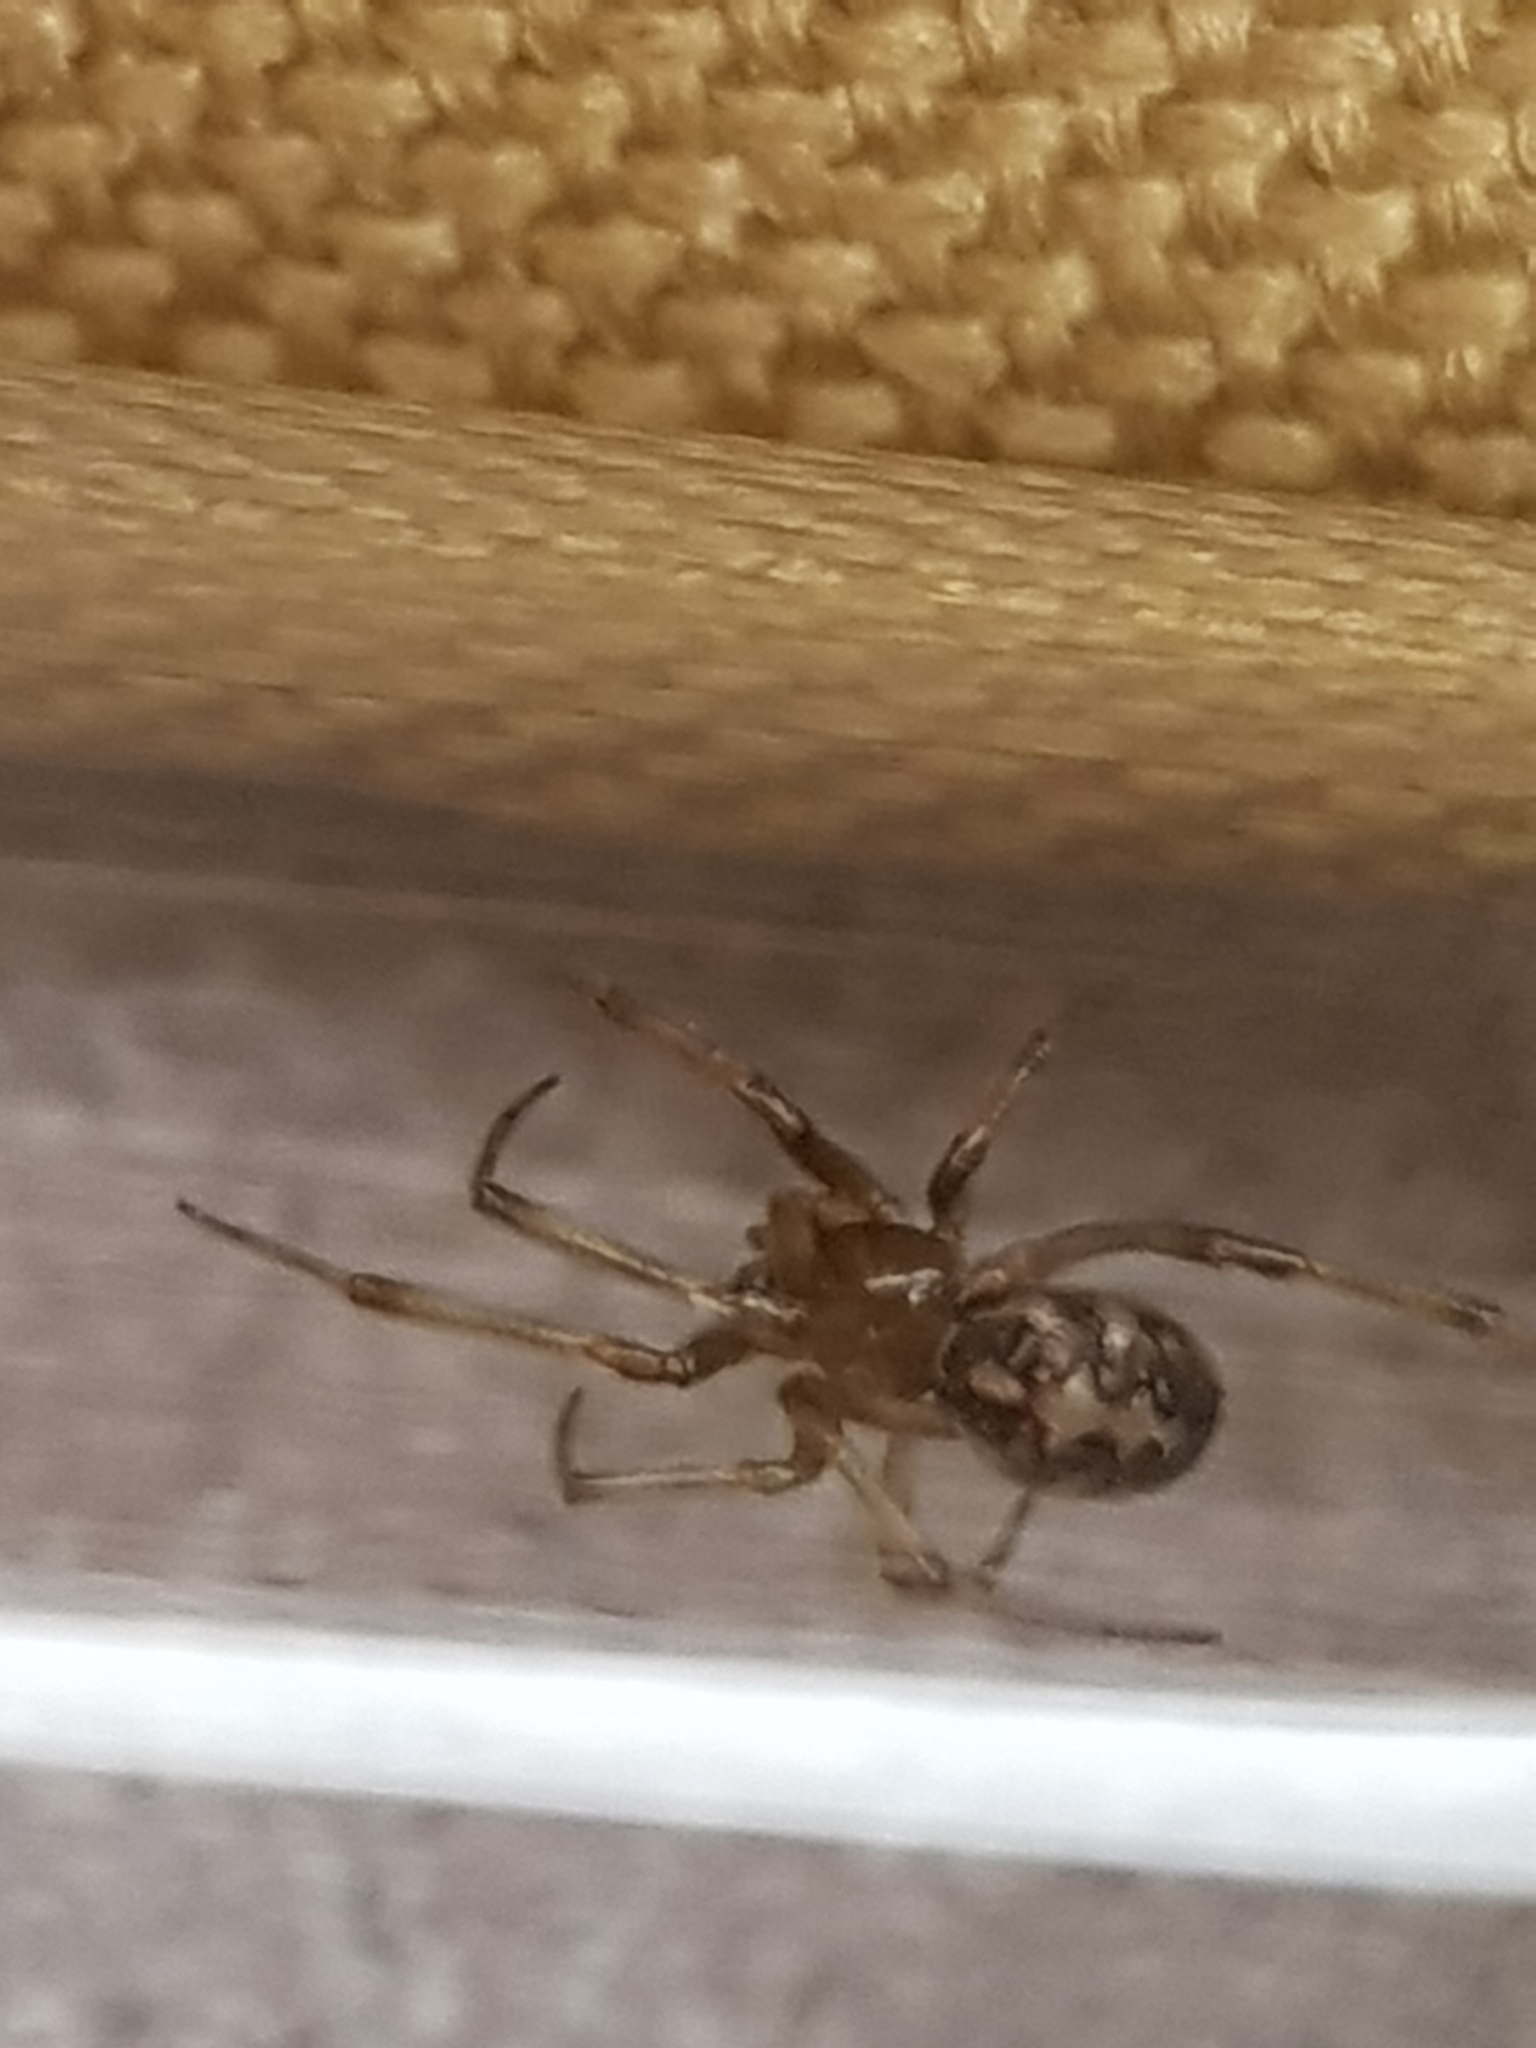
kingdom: Animalia
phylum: Arthropoda
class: Arachnida
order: Araneae
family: Theridiidae
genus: Steatoda
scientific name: Steatoda triangulosa
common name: Triangulate bud spider
